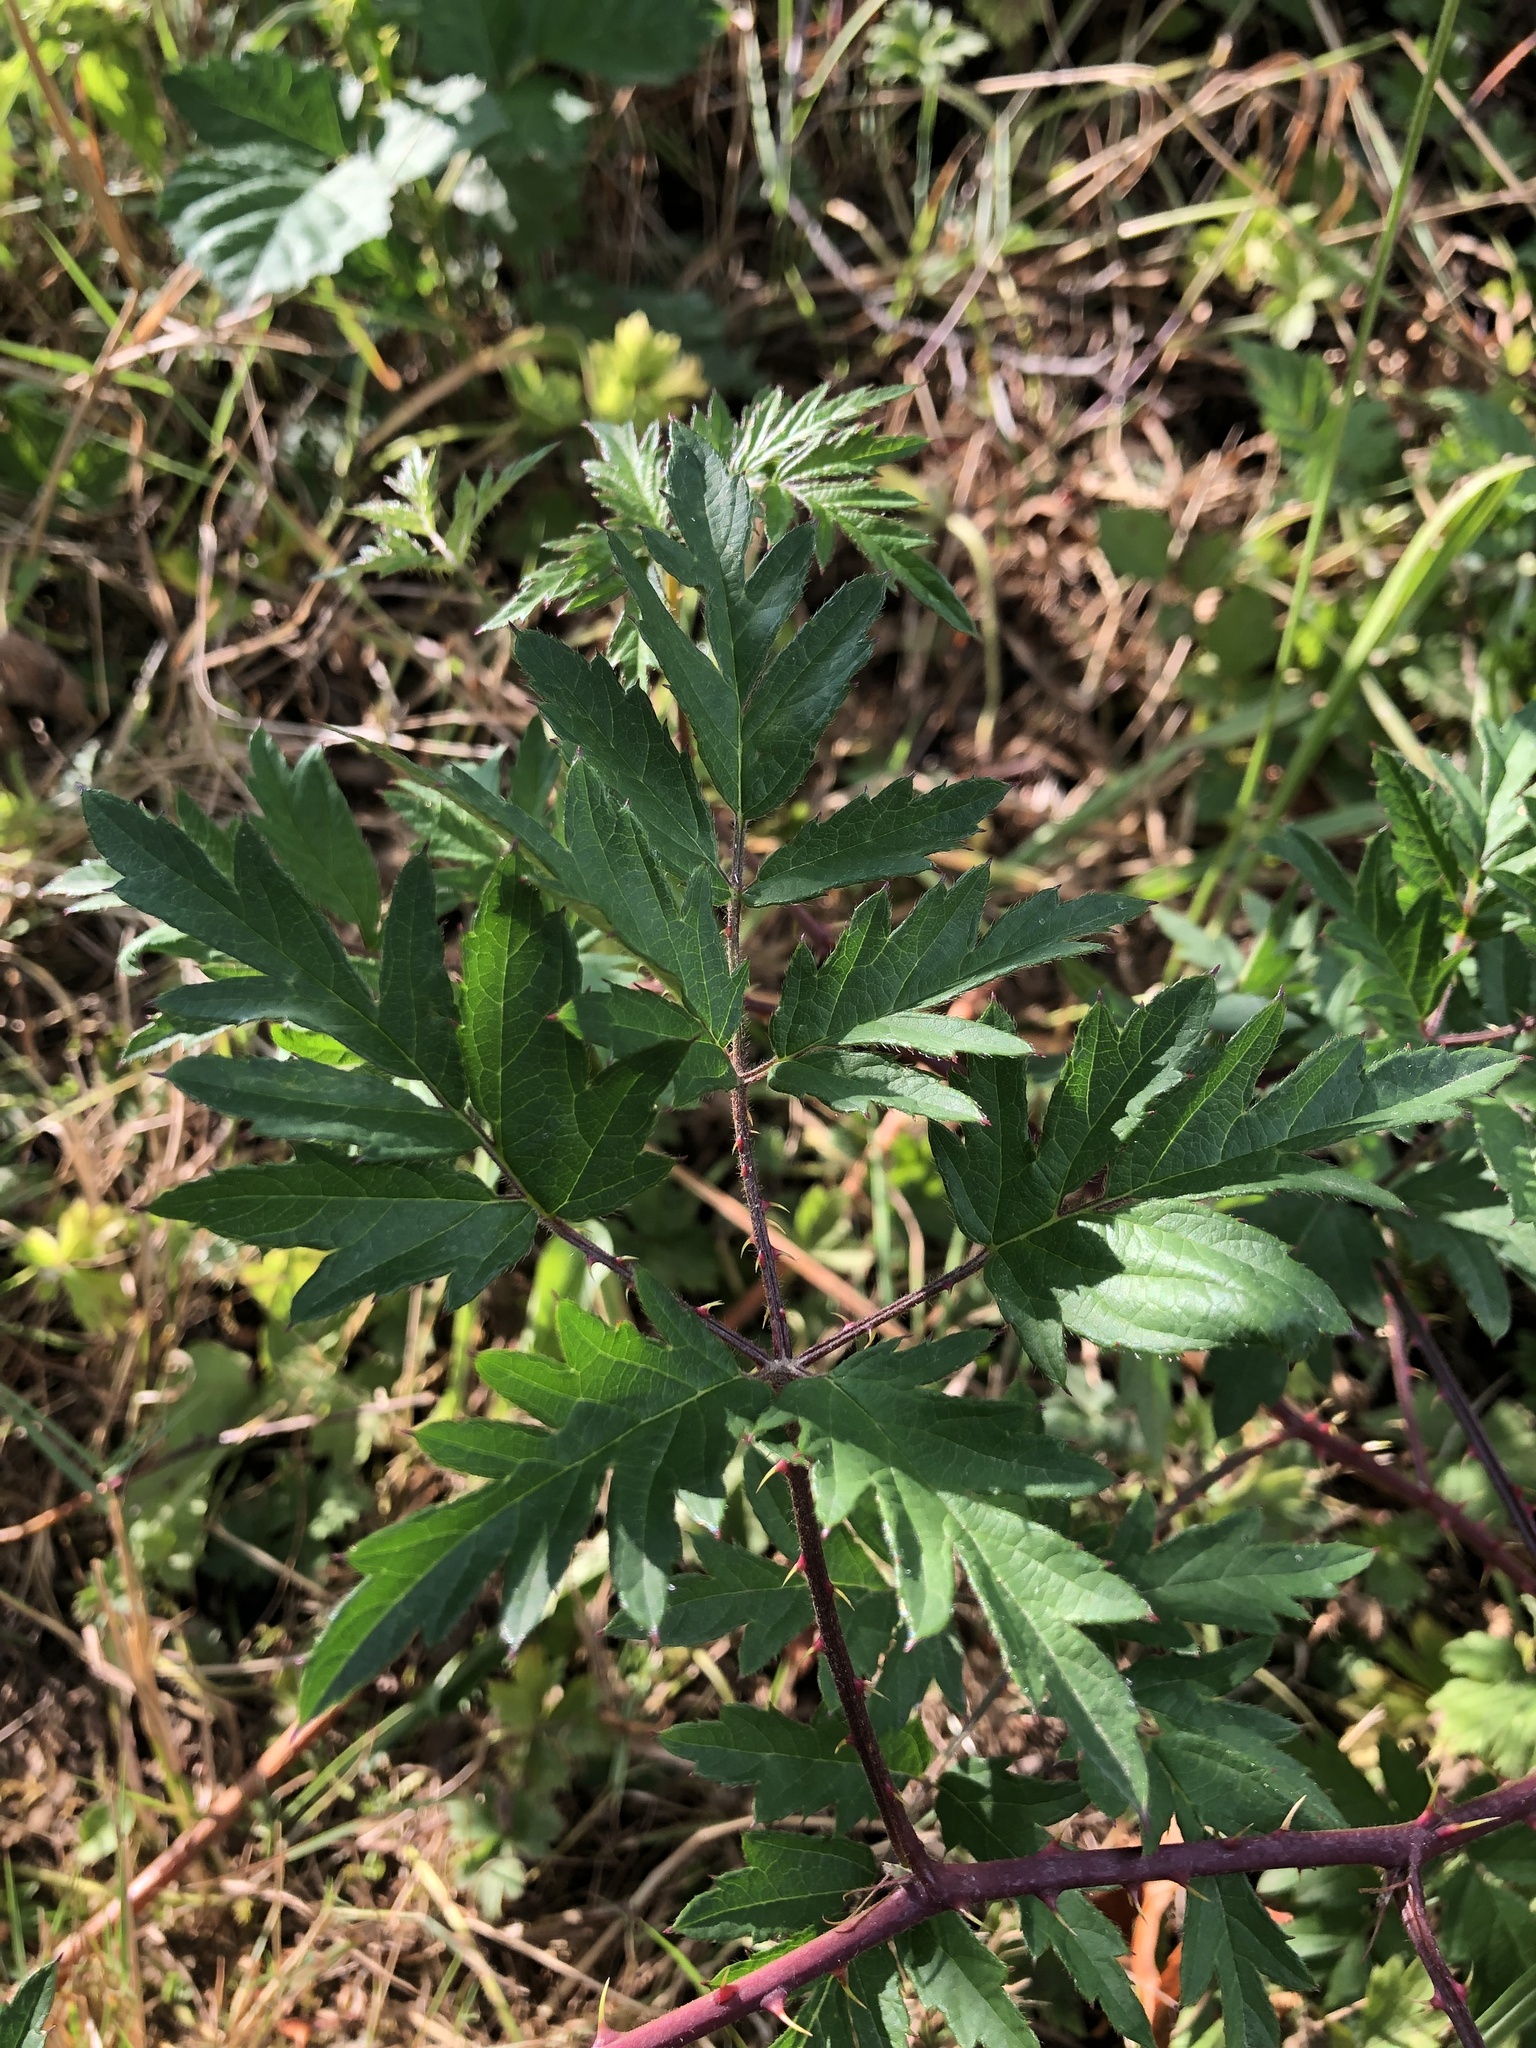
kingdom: Plantae
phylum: Tracheophyta
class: Magnoliopsida
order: Rosales
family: Rosaceae
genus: Rubus
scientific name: Rubus laciniatus
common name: Evergreen blackberry
